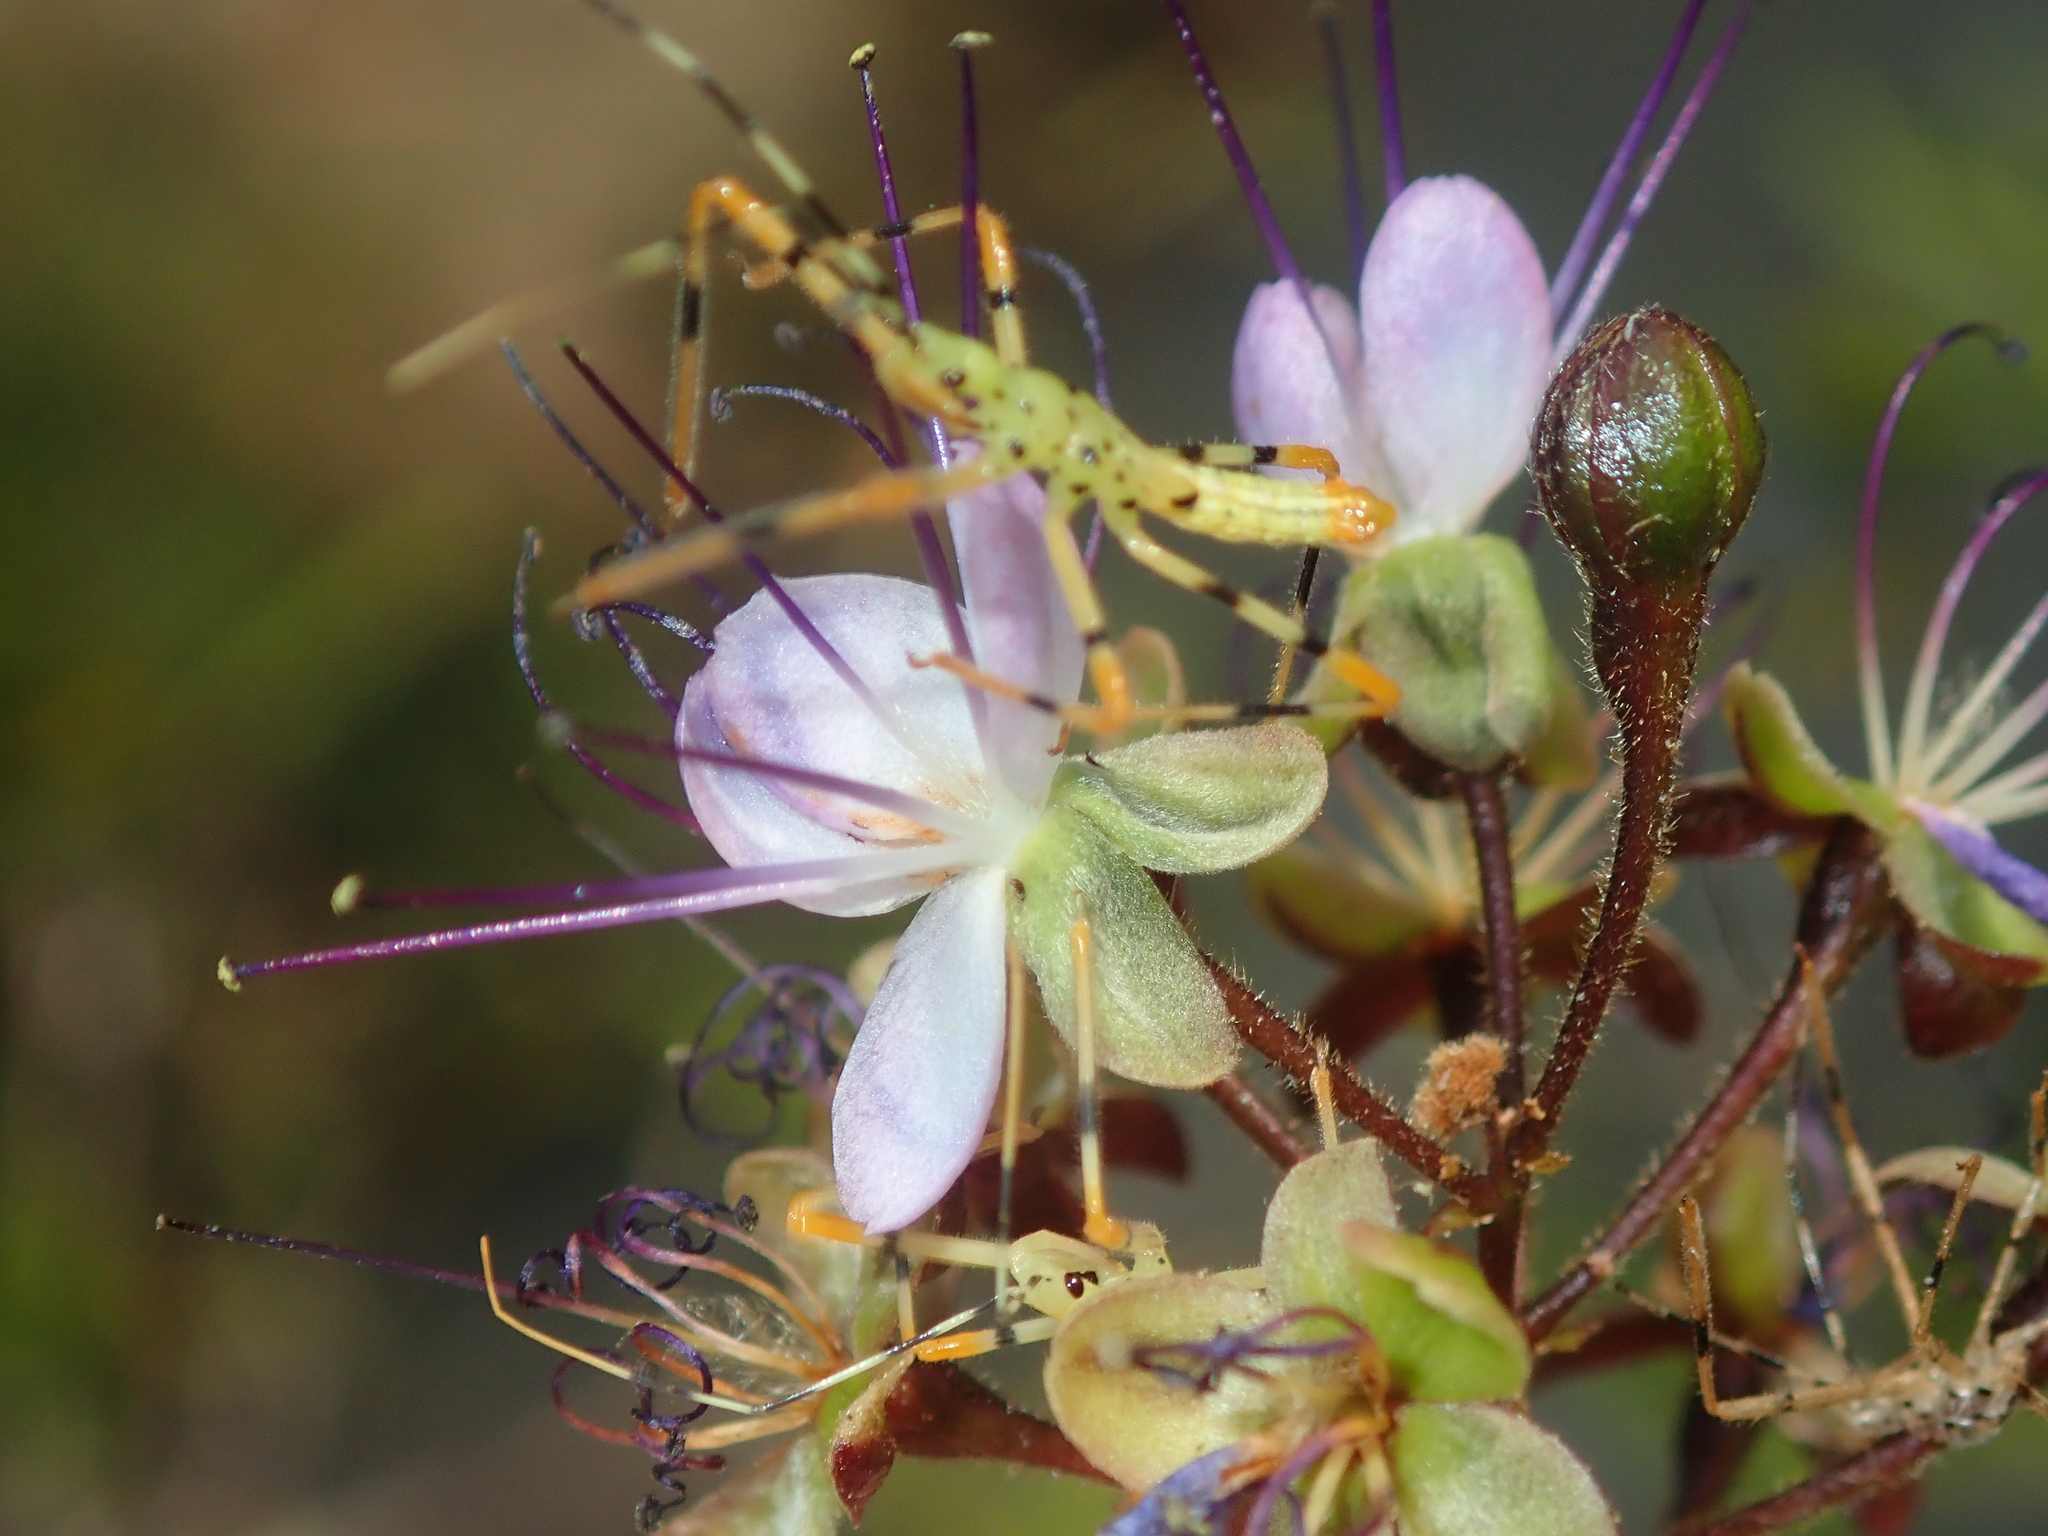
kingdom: Plantae
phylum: Tracheophyta
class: Magnoliopsida
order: Malpighiales
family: Chrysobalanaceae
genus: Hirtella
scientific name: Hirtella gracilipes
